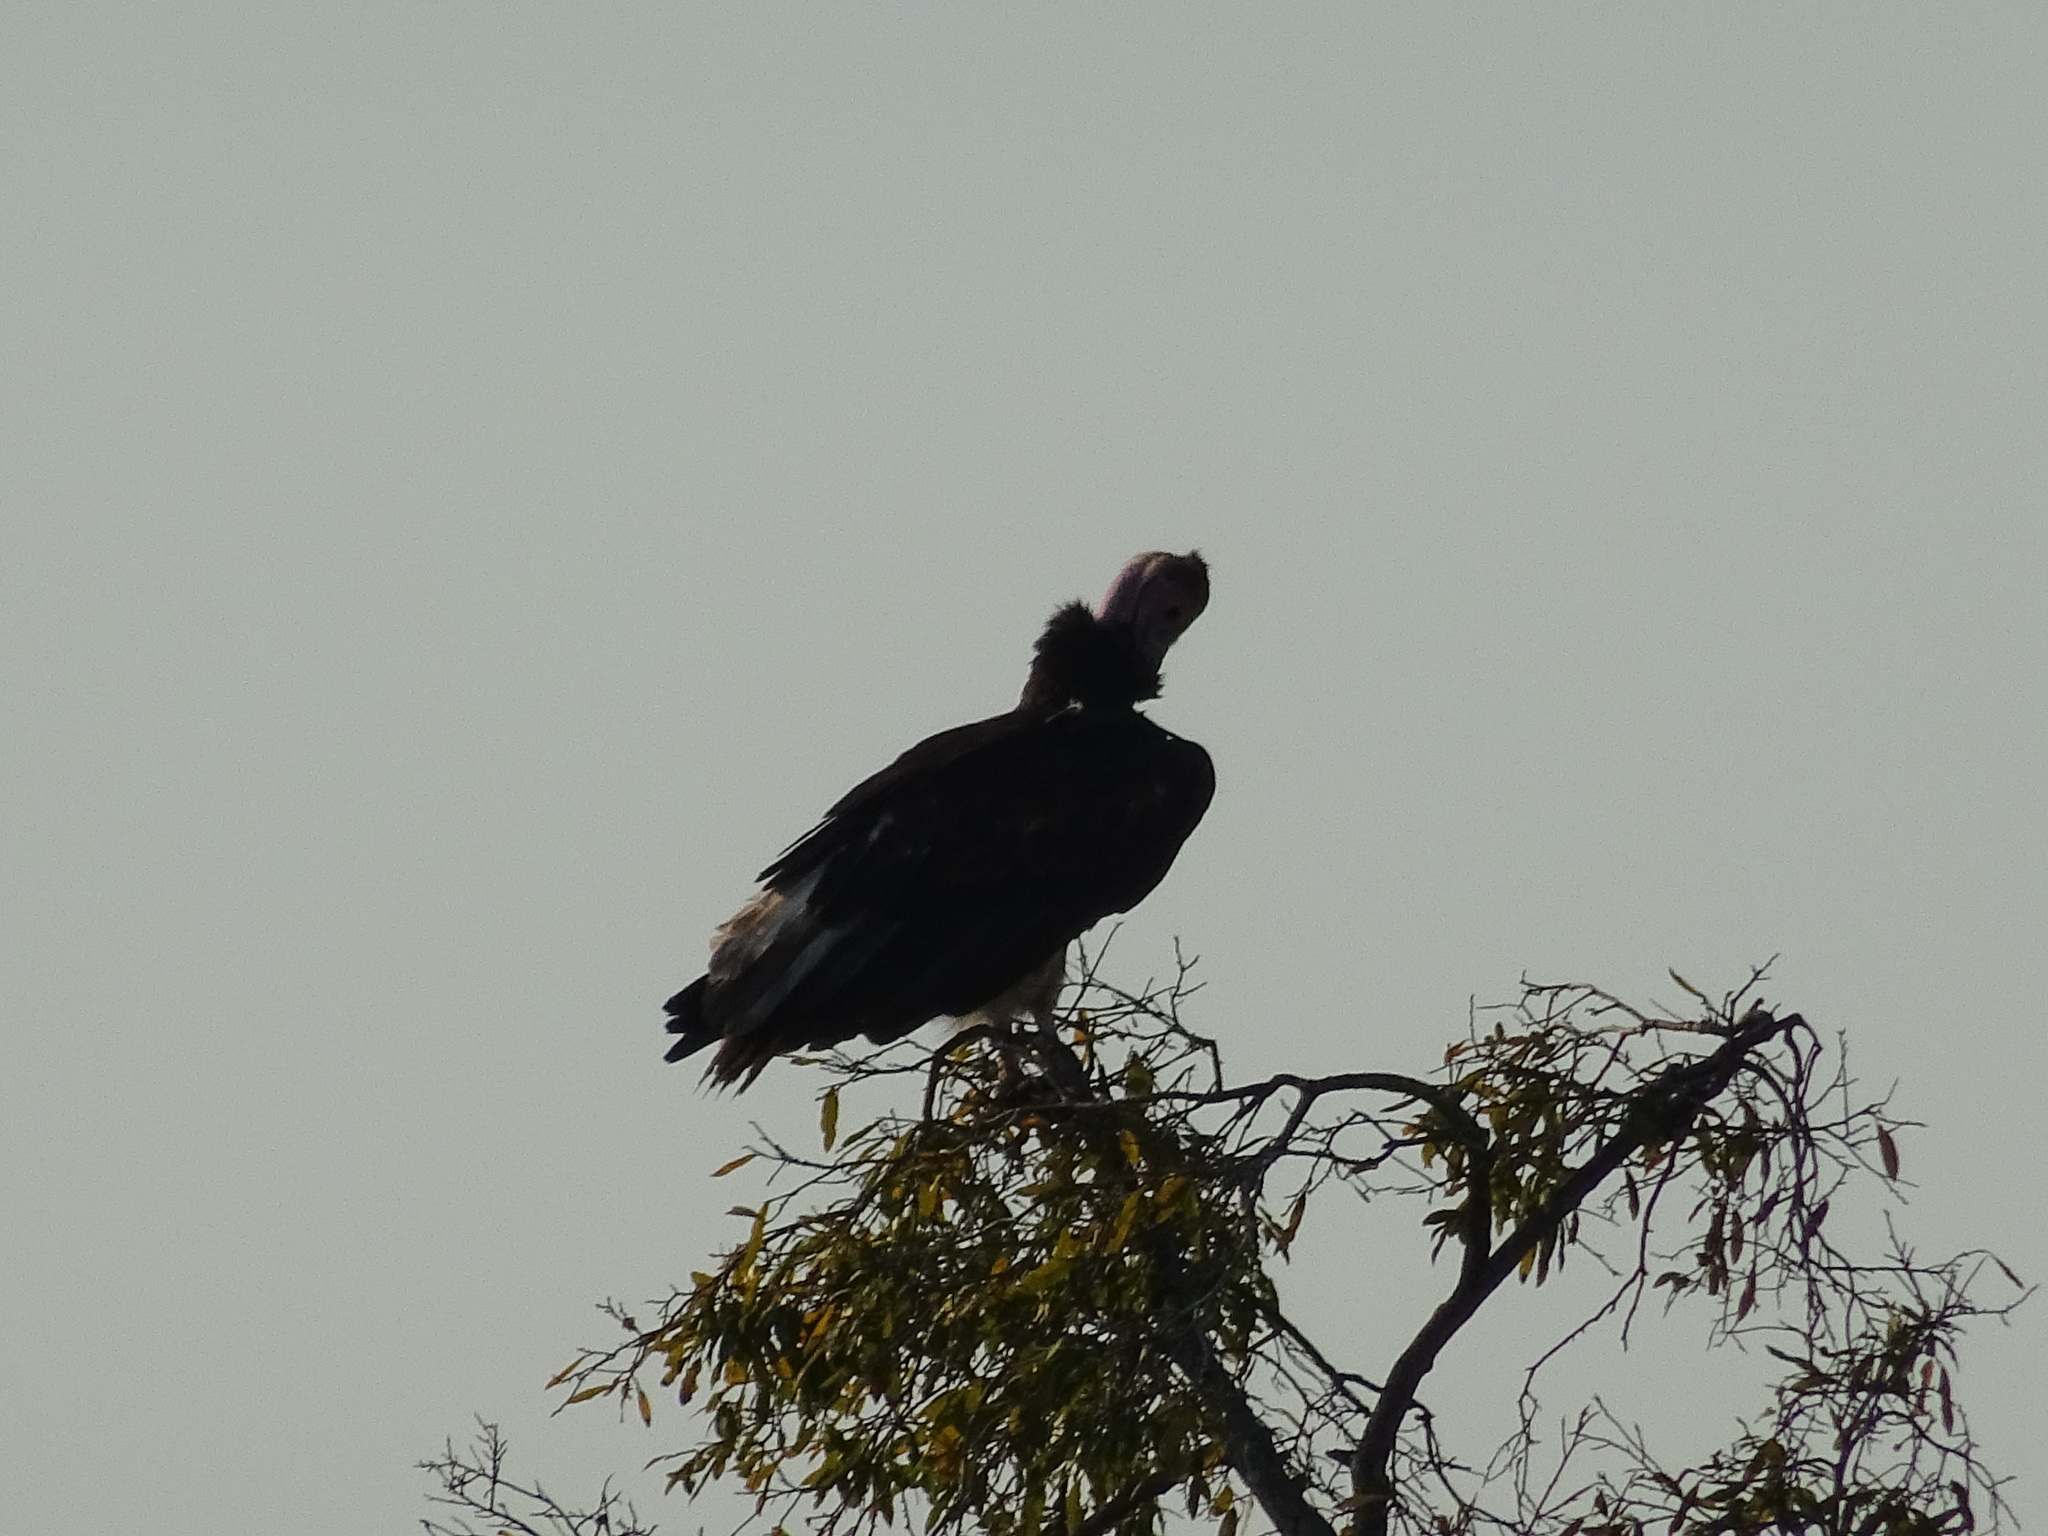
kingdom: Animalia
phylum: Chordata
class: Aves
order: Accipitriformes
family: Accipitridae
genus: Trigonoceps
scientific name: Trigonoceps occipitalis
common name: White-headed vulture
